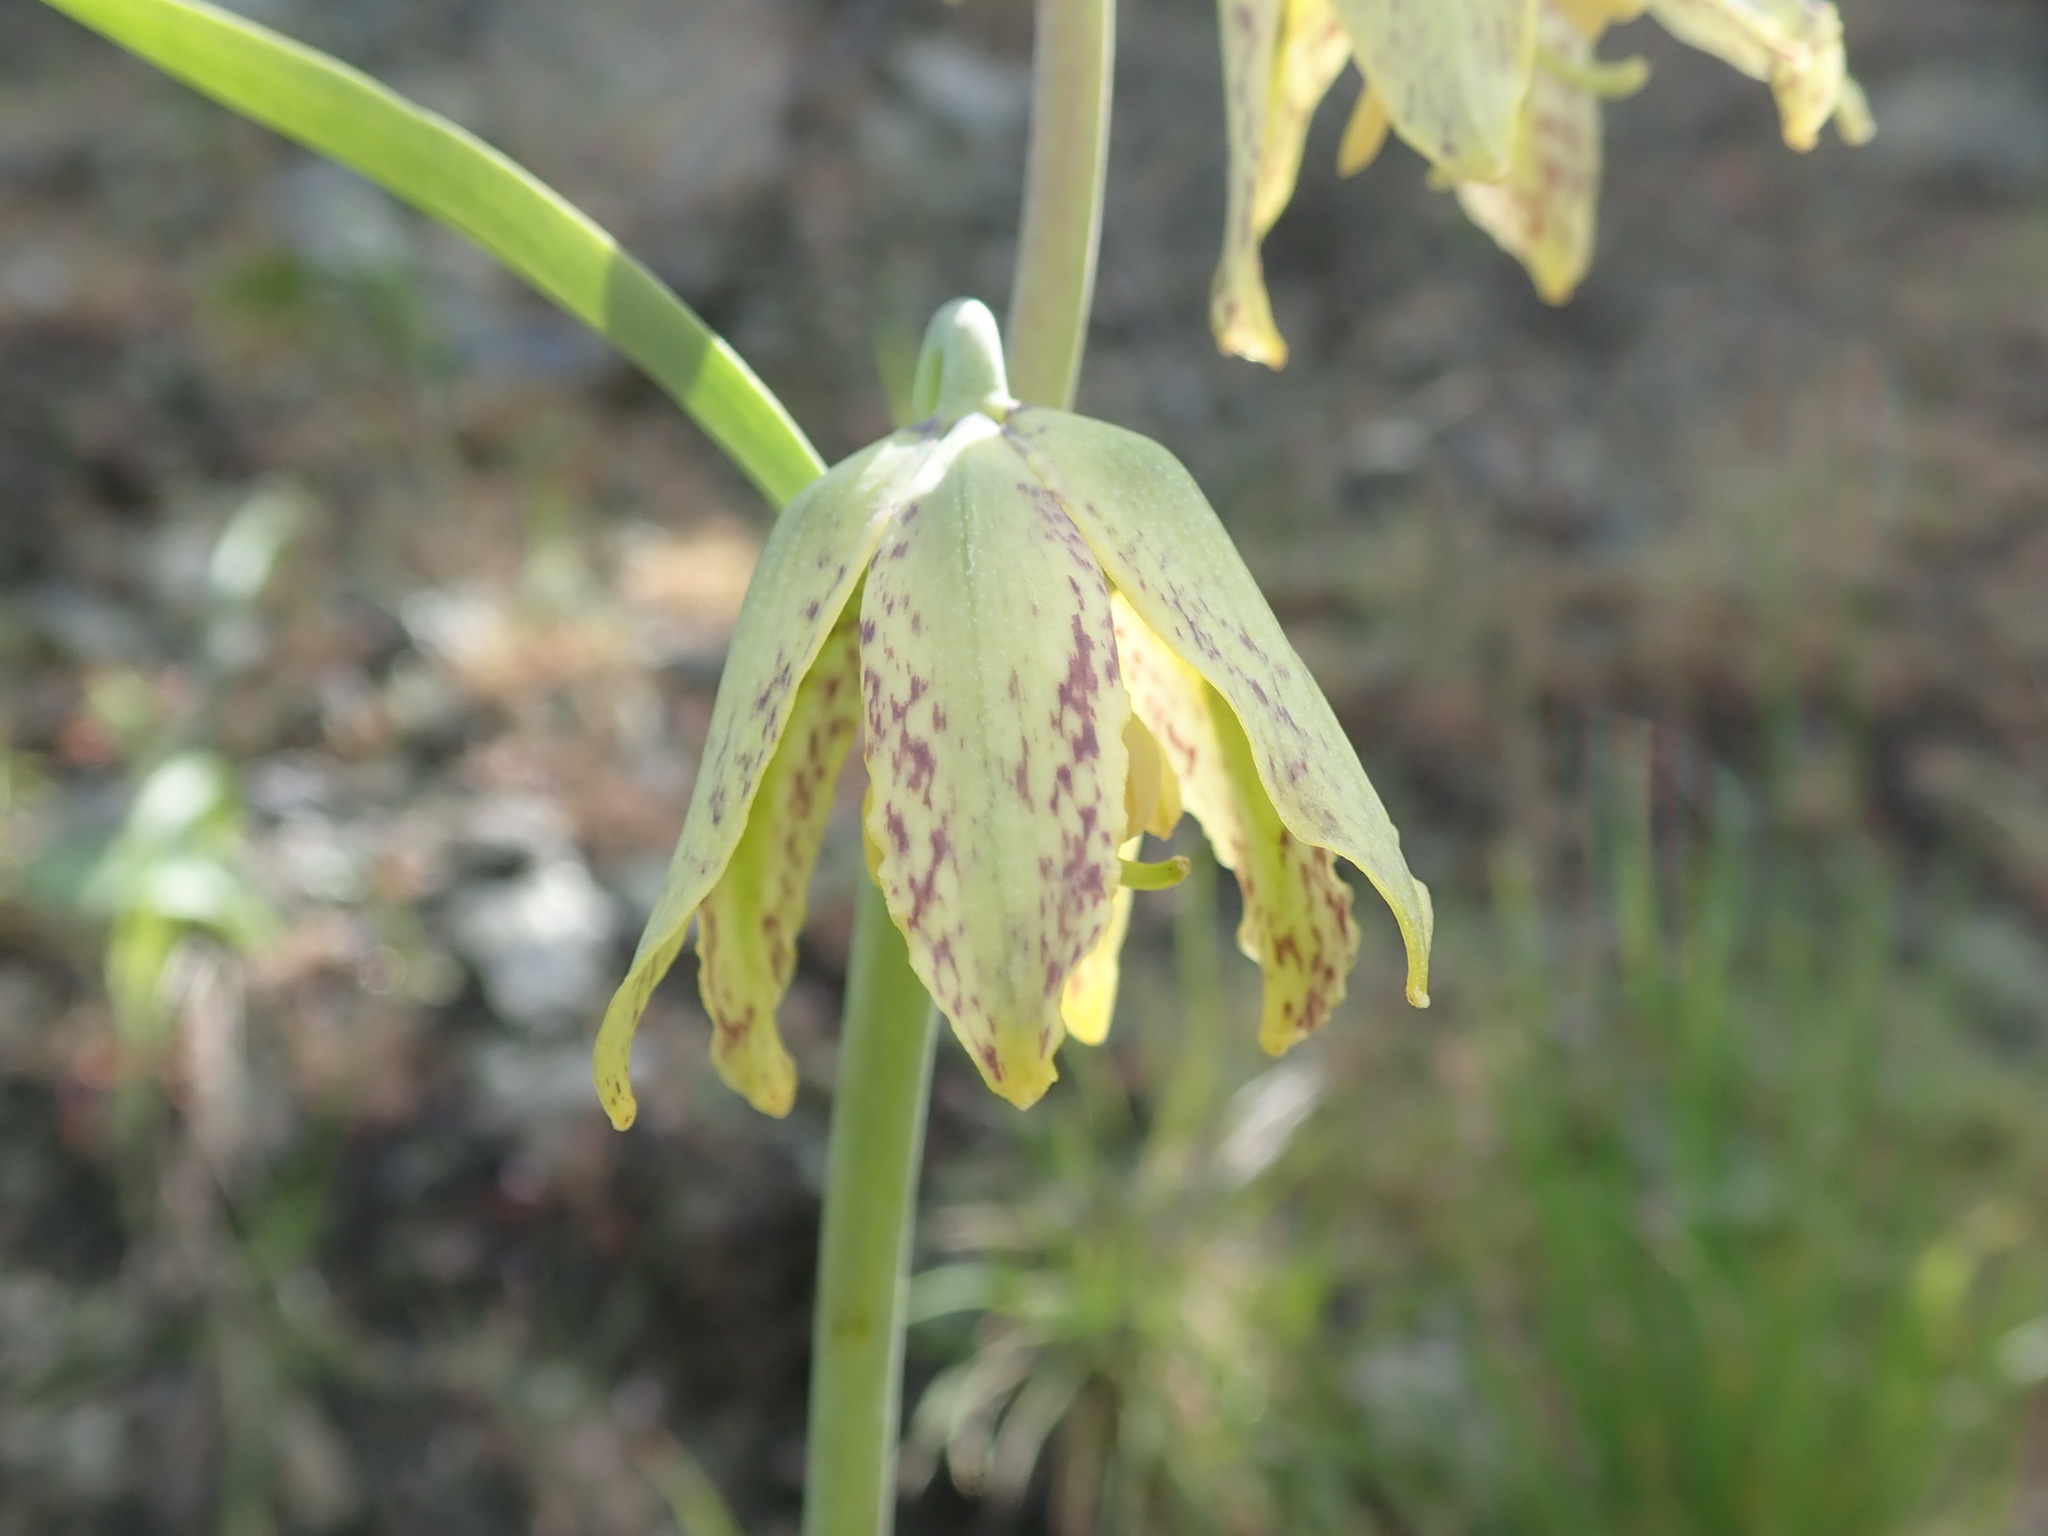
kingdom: Plantae
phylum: Tracheophyta
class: Liliopsida
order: Liliales
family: Liliaceae
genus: Fritillaria
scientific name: Fritillaria affinis
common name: Ojai fritillary
